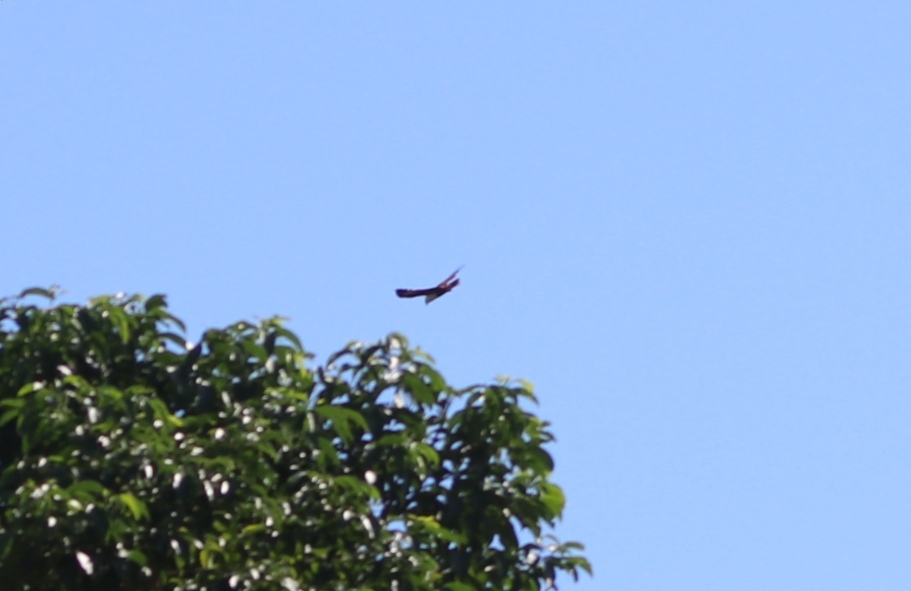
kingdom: Animalia
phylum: Chordata
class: Aves
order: Accipitriformes
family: Accipitridae
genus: Haliastur
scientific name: Haliastur indus
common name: Brahminy kite
